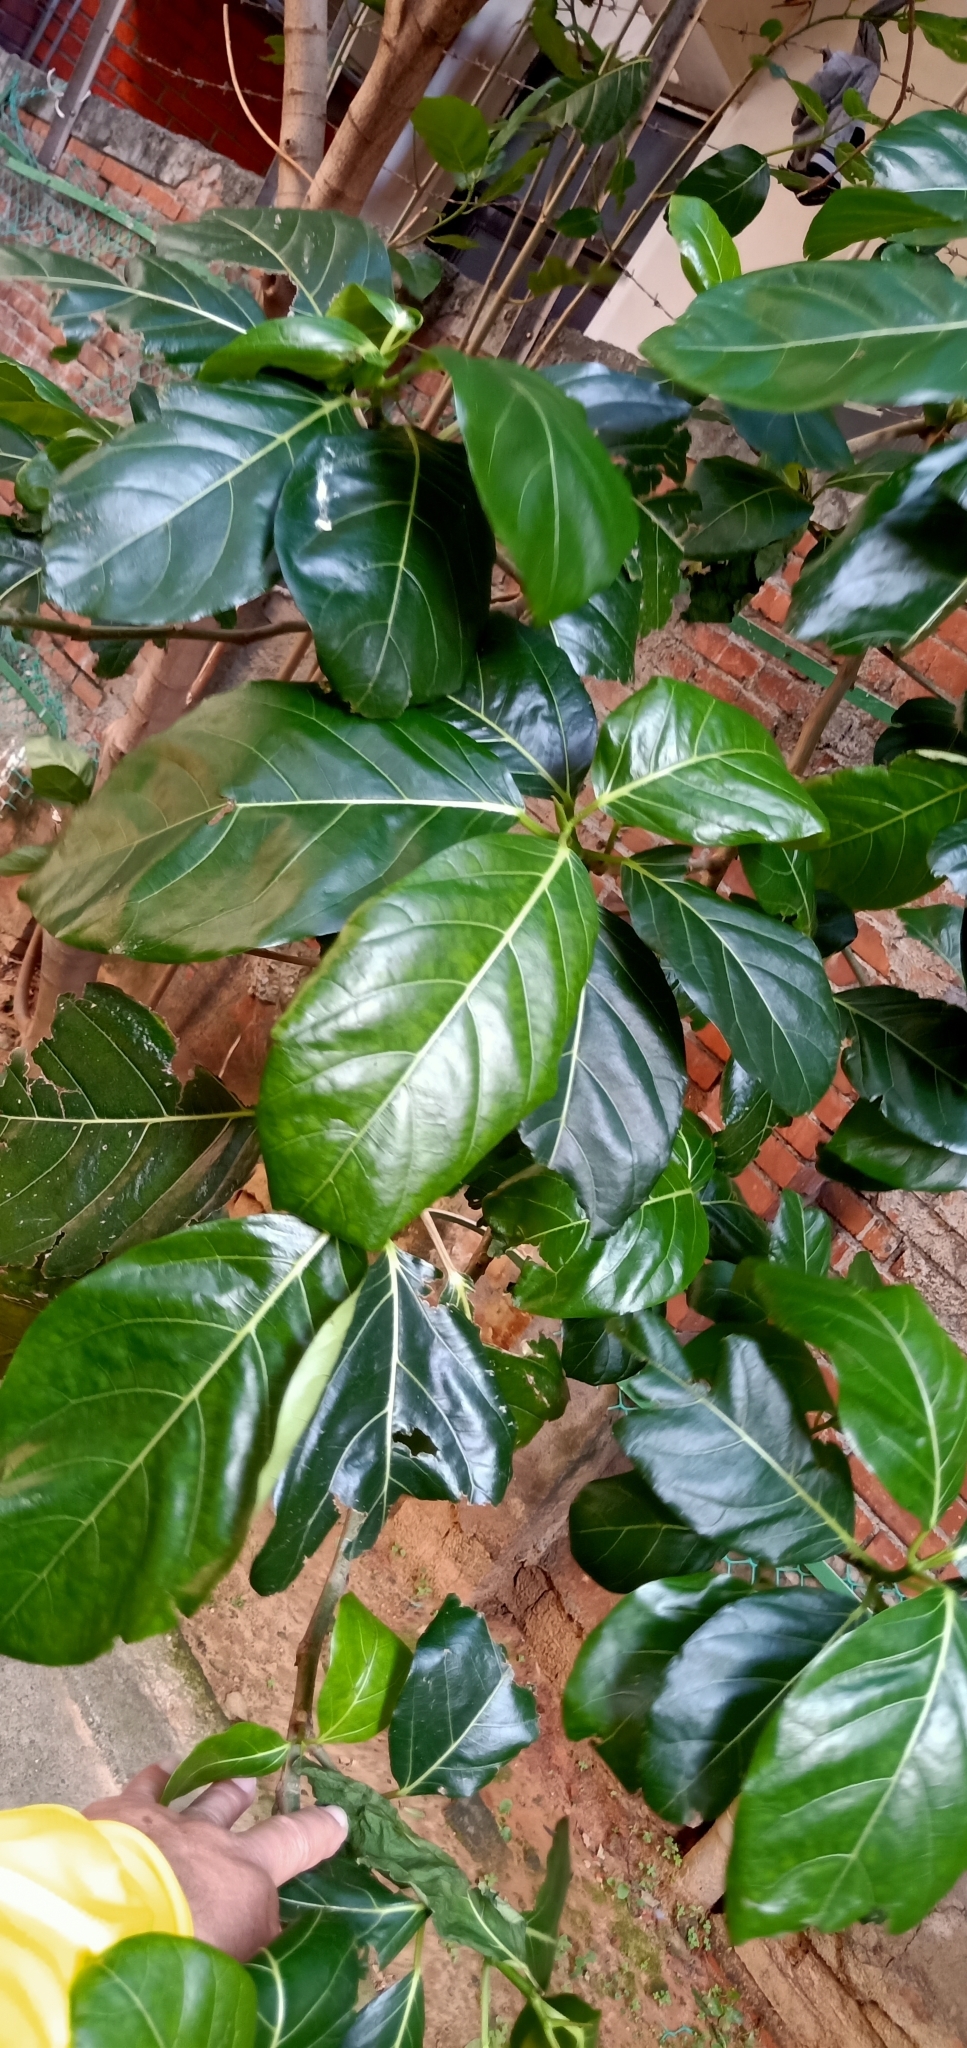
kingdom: Plantae
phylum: Tracheophyta
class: Magnoliopsida
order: Rosales
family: Moraceae
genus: Ficus
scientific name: Ficus septica
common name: Septic fig
